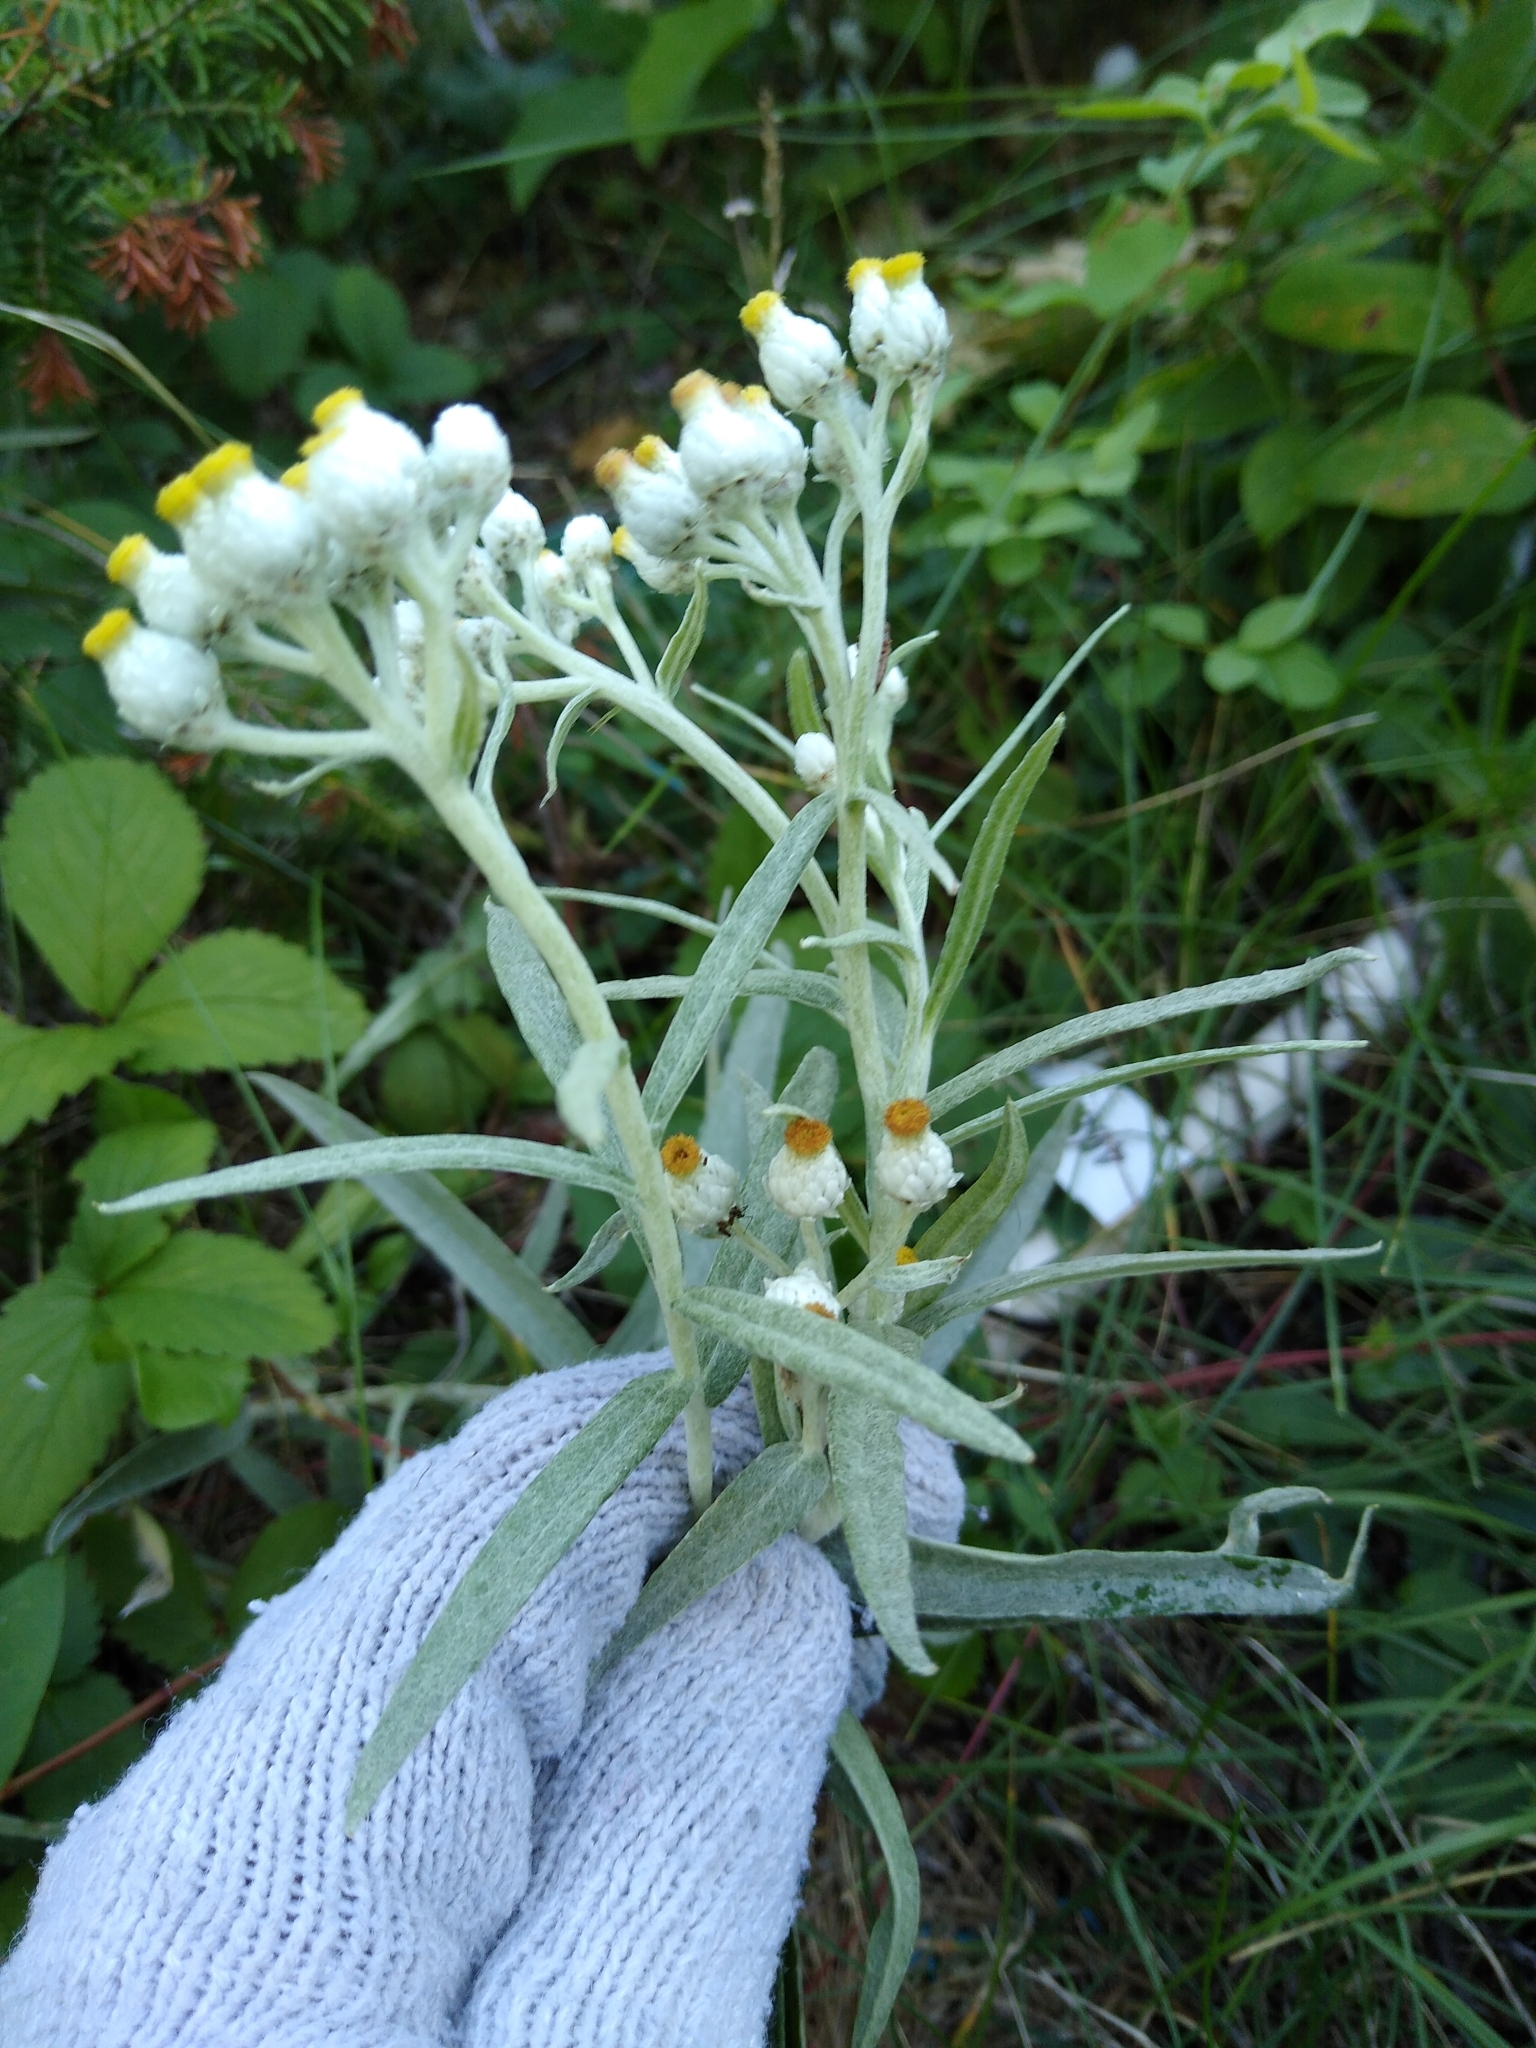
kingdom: Plantae
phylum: Tracheophyta
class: Magnoliopsida
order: Asterales
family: Asteraceae
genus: Anaphalis
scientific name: Anaphalis margaritacea
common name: Pearly everlasting
